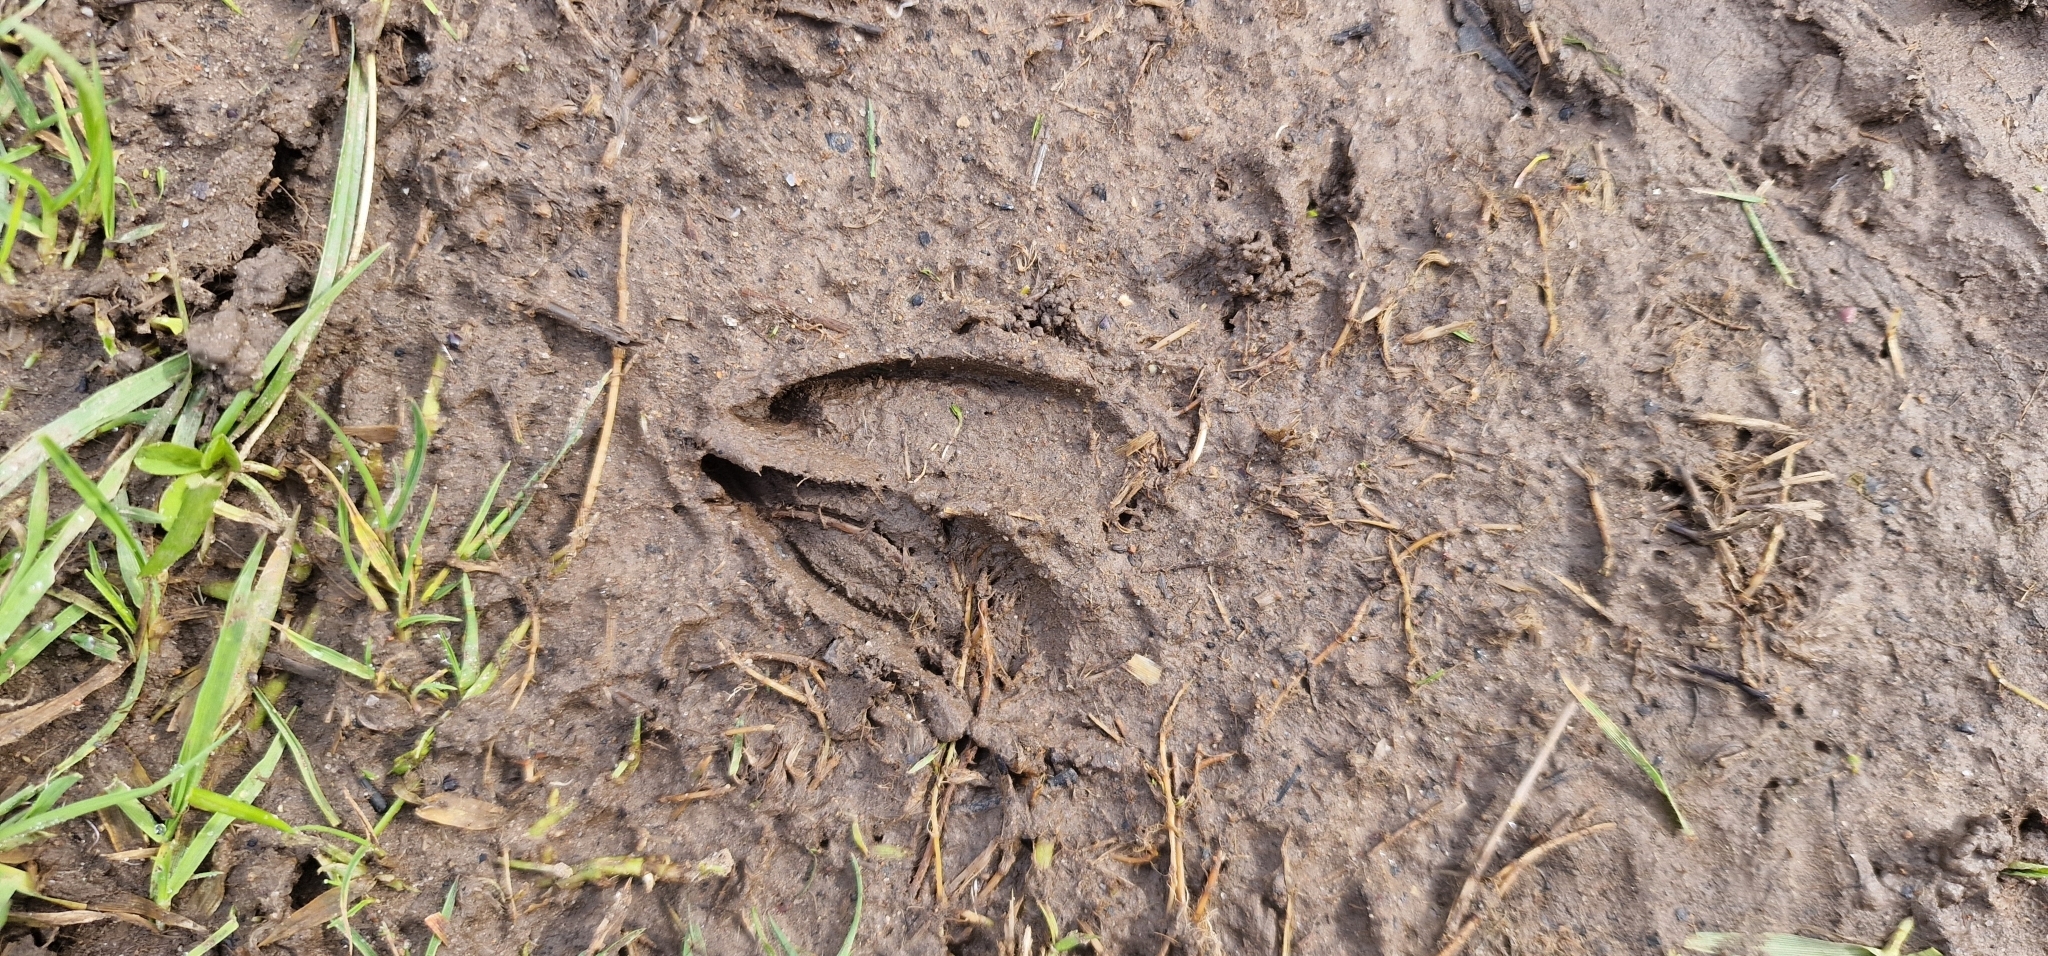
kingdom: Animalia
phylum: Chordata
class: Mammalia
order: Artiodactyla
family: Cervidae
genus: Capreolus
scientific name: Capreolus capreolus
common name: Western roe deer
